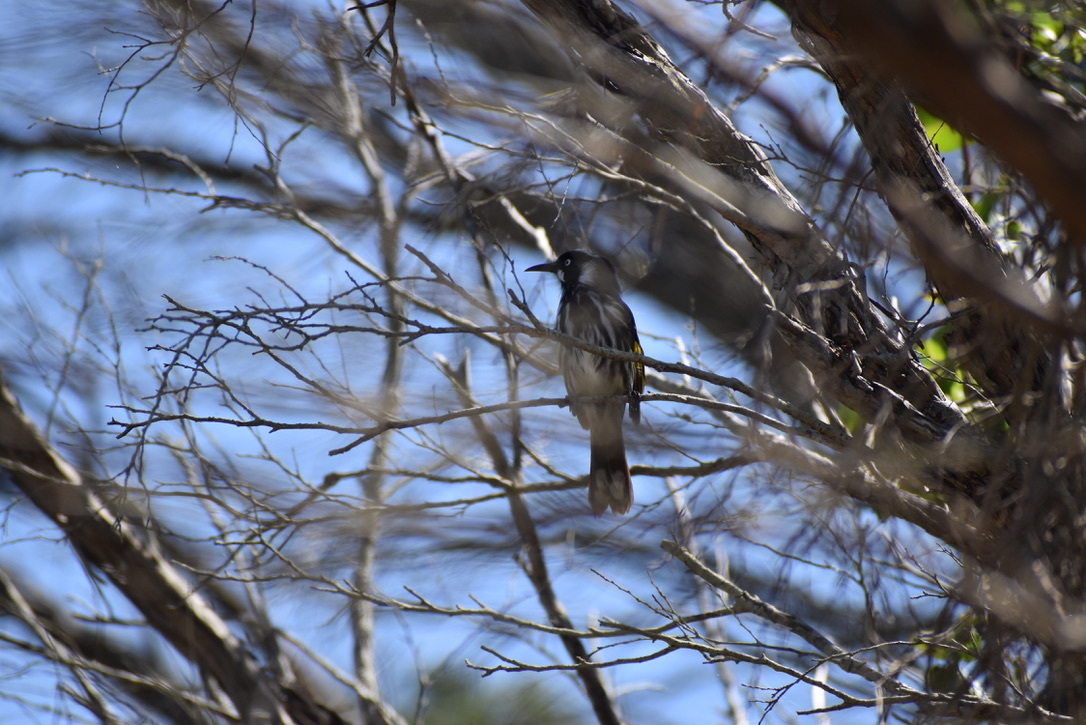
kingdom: Animalia
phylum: Chordata
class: Aves
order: Passeriformes
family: Meliphagidae
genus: Phylidonyris
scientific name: Phylidonyris novaehollandiae
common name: New holland honeyeater
